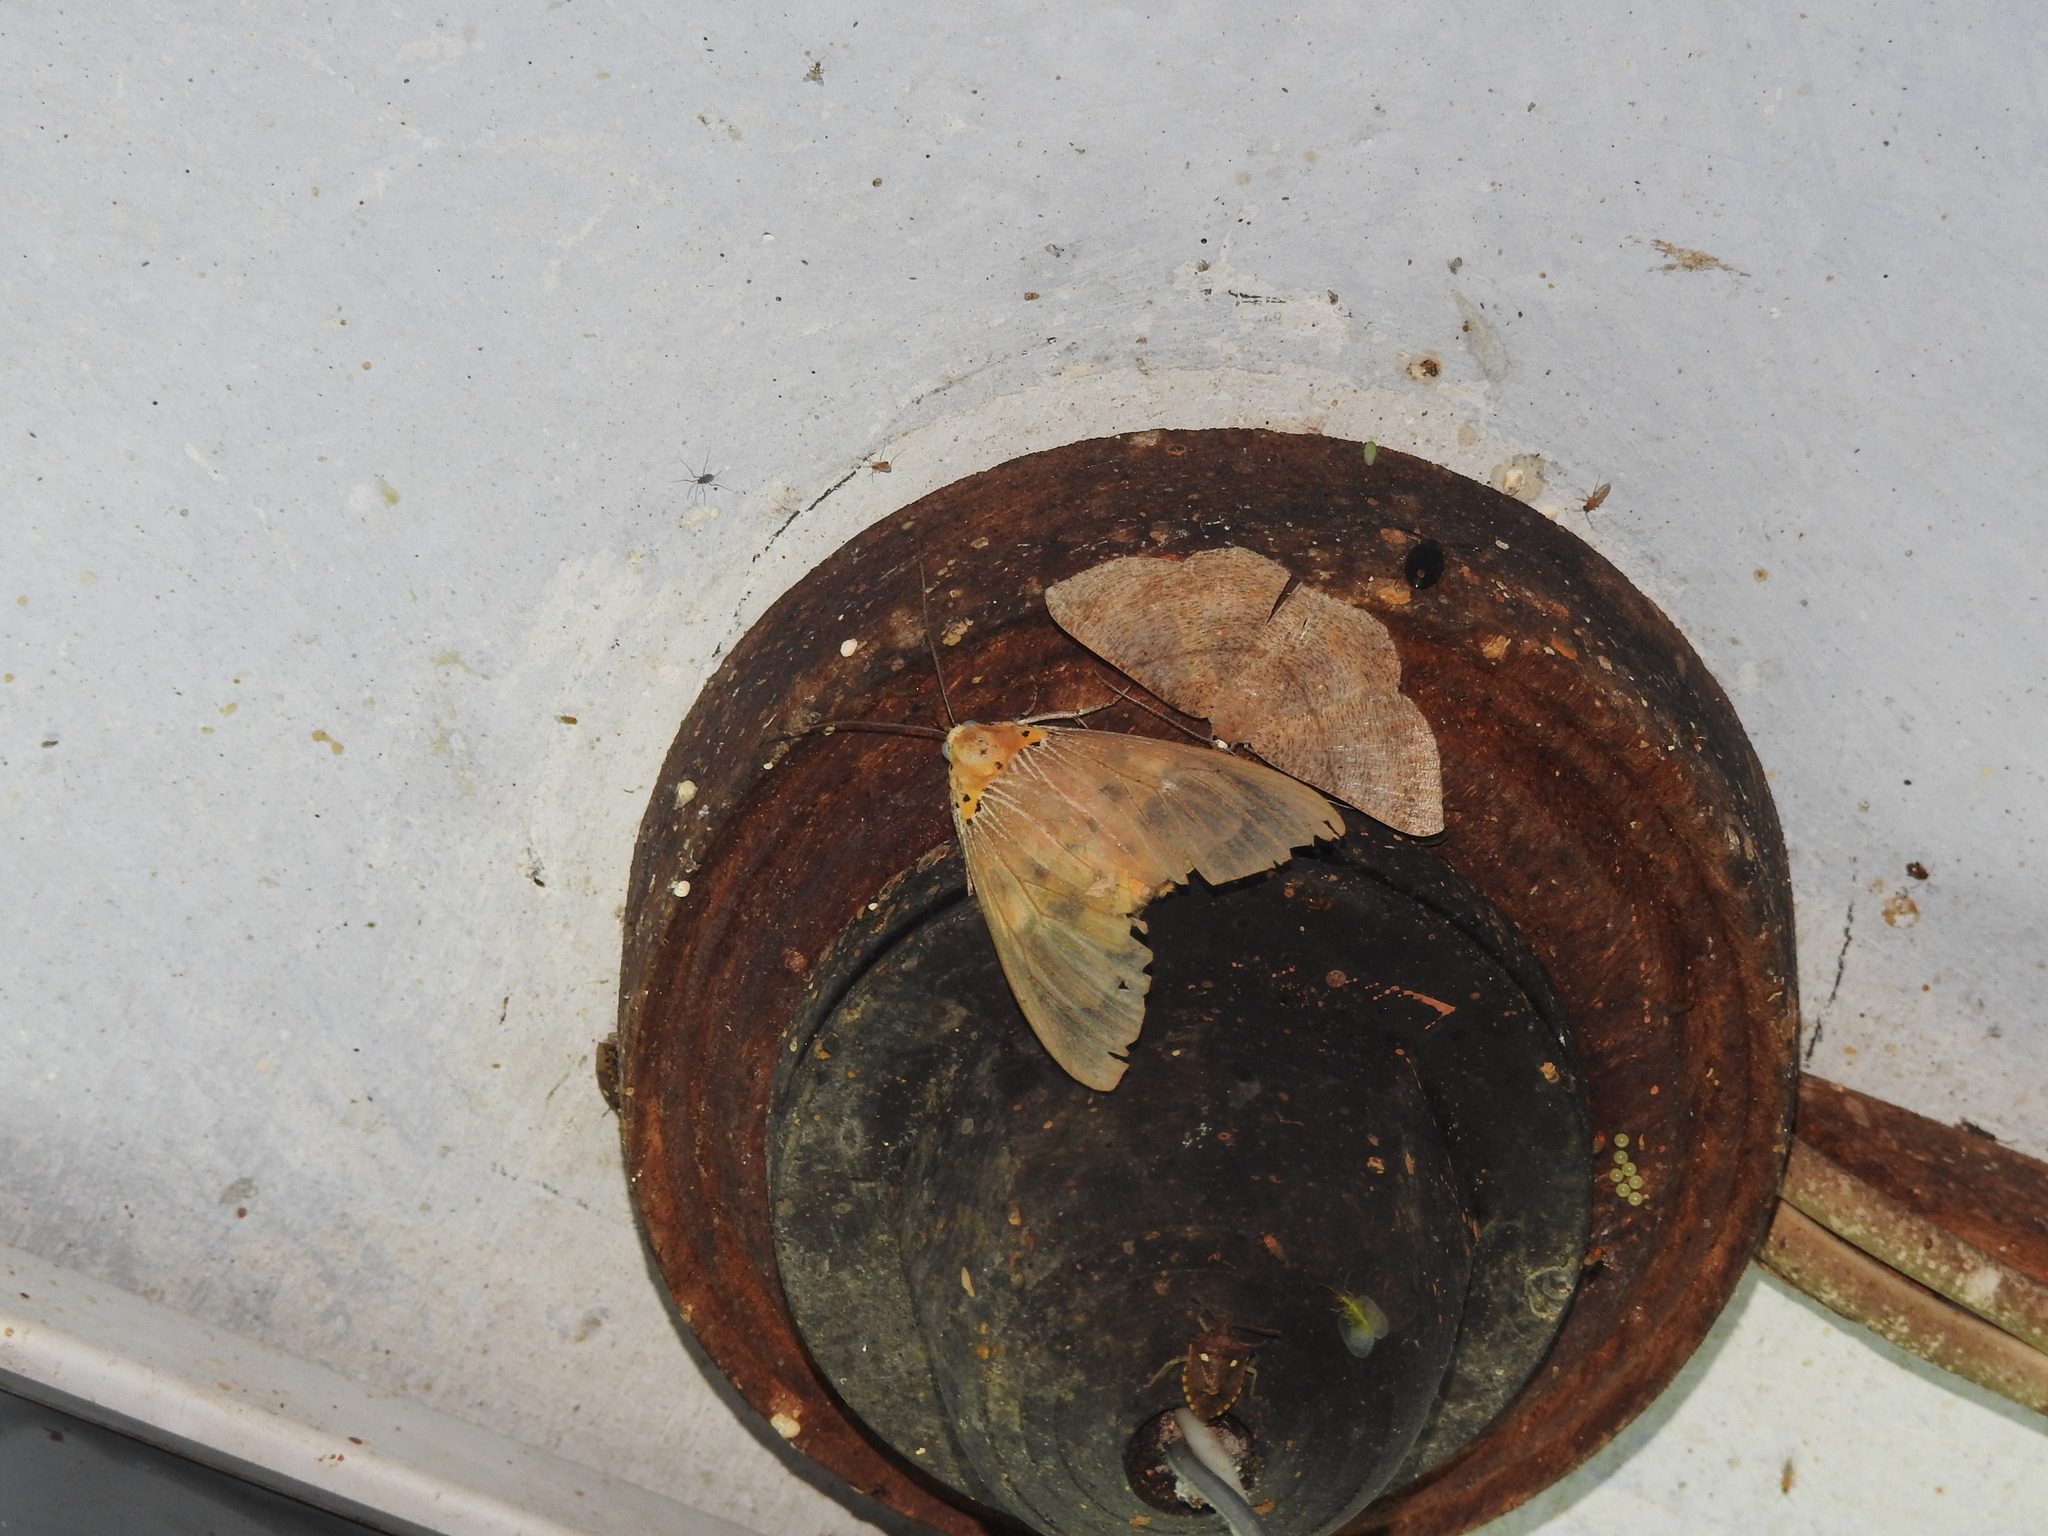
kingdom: Animalia
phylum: Arthropoda
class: Insecta
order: Lepidoptera
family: Erebidae
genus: Asota
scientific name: Asota caricae
